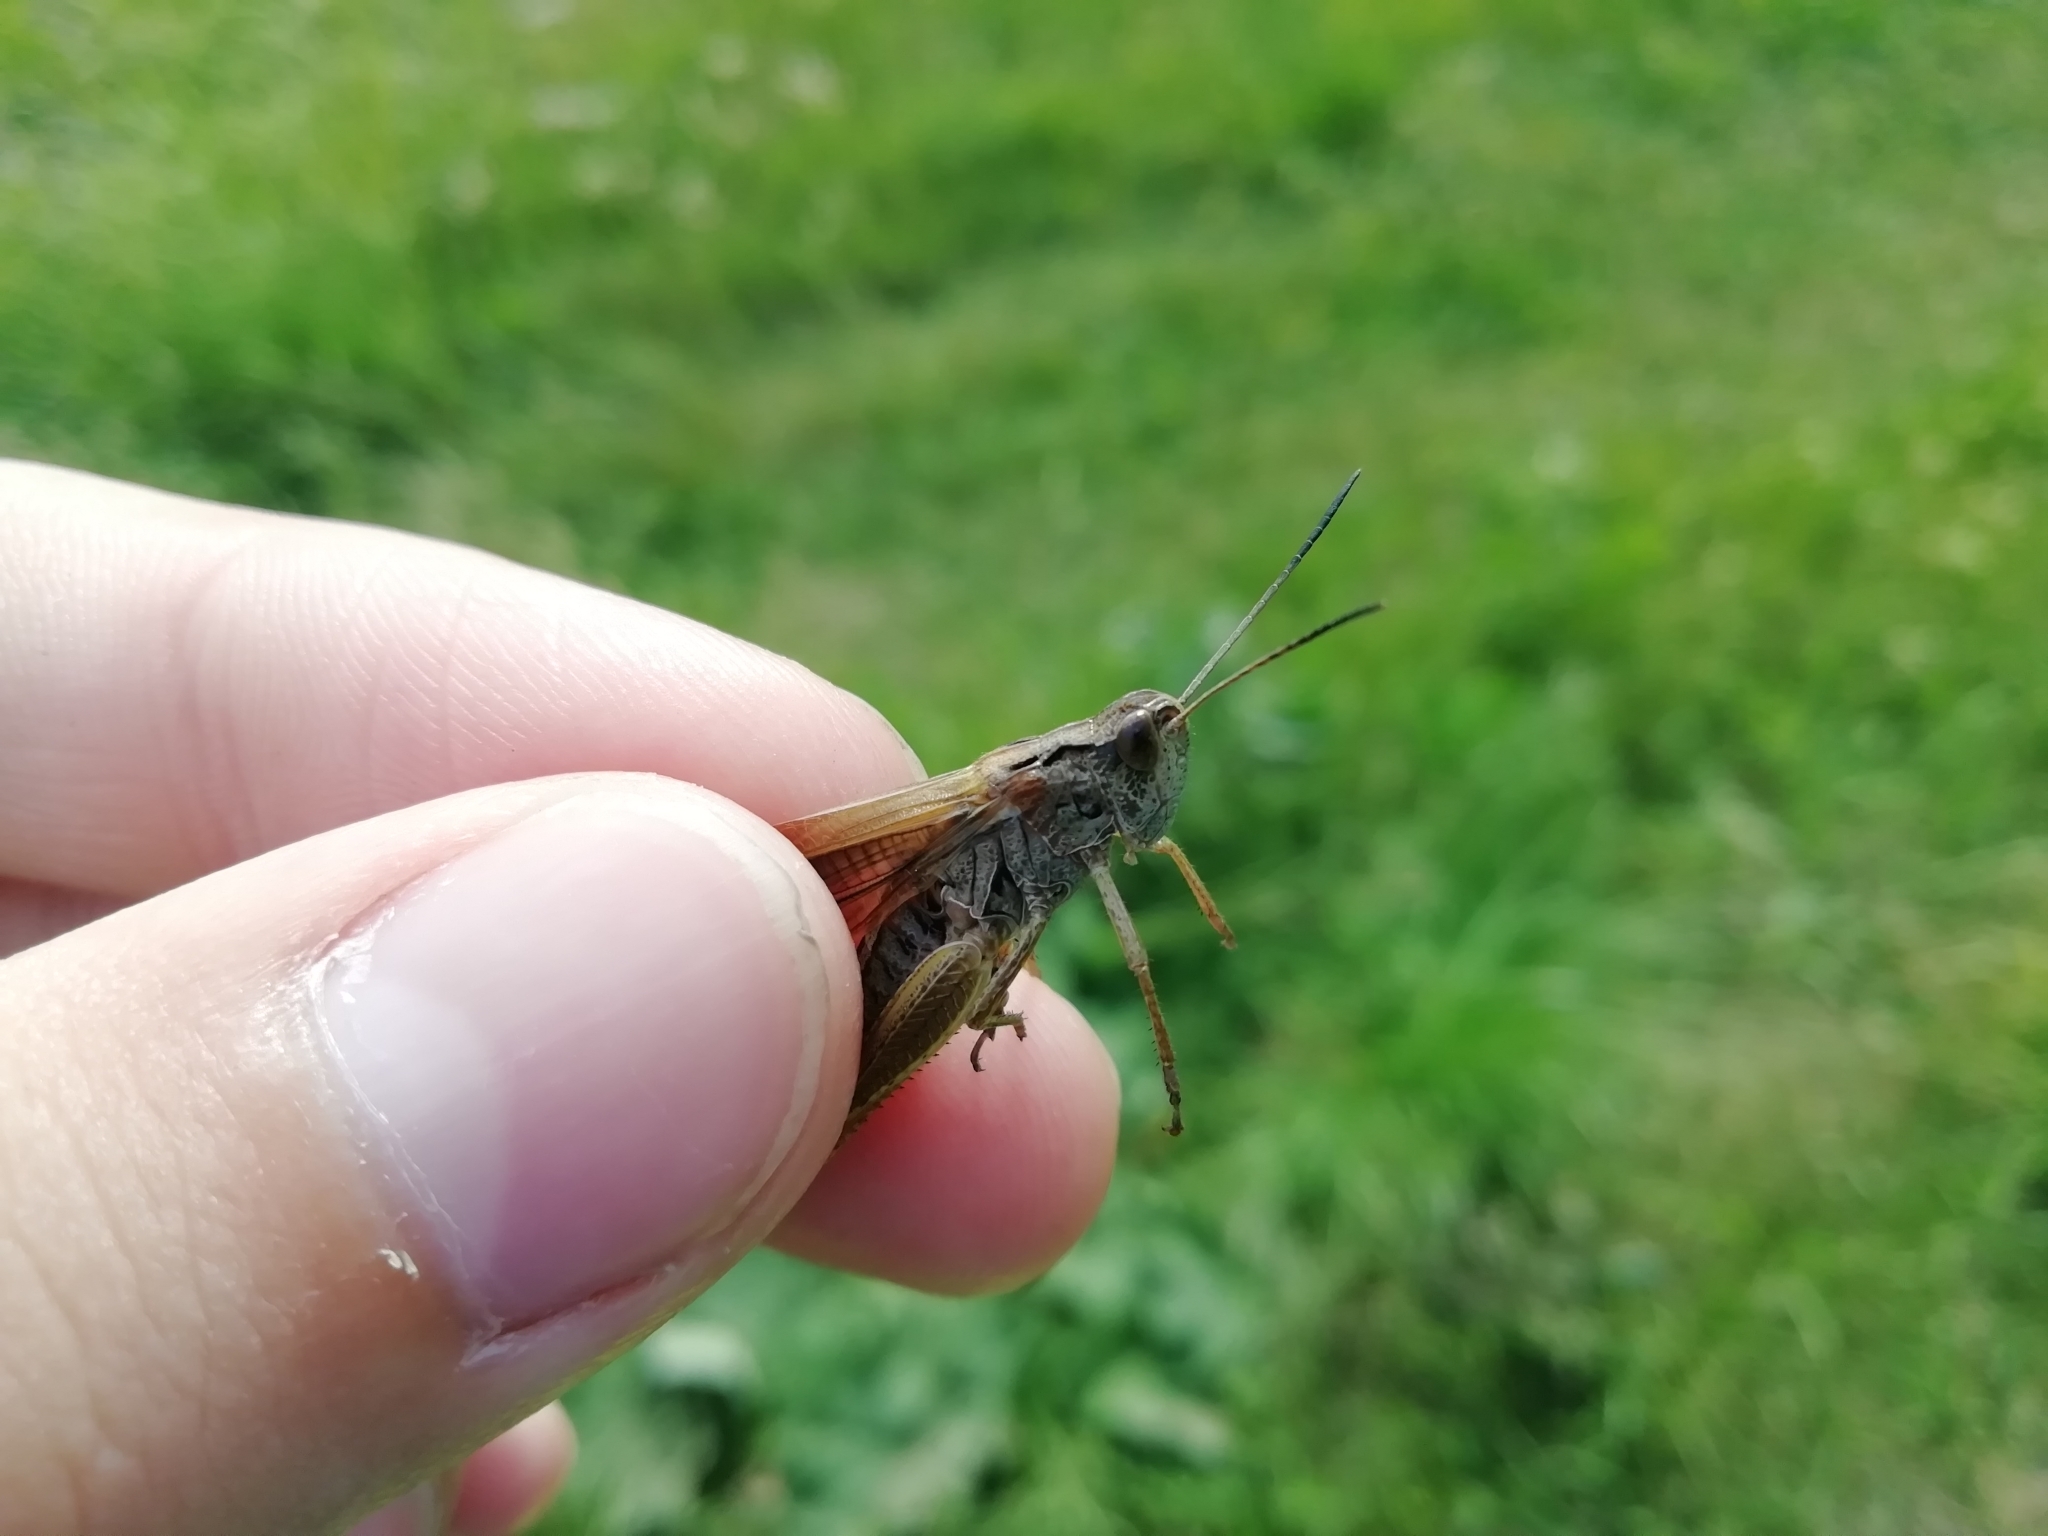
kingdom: Animalia
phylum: Arthropoda
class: Insecta
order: Orthoptera
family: Acrididae
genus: Stauroderus
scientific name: Stauroderus scalaris
